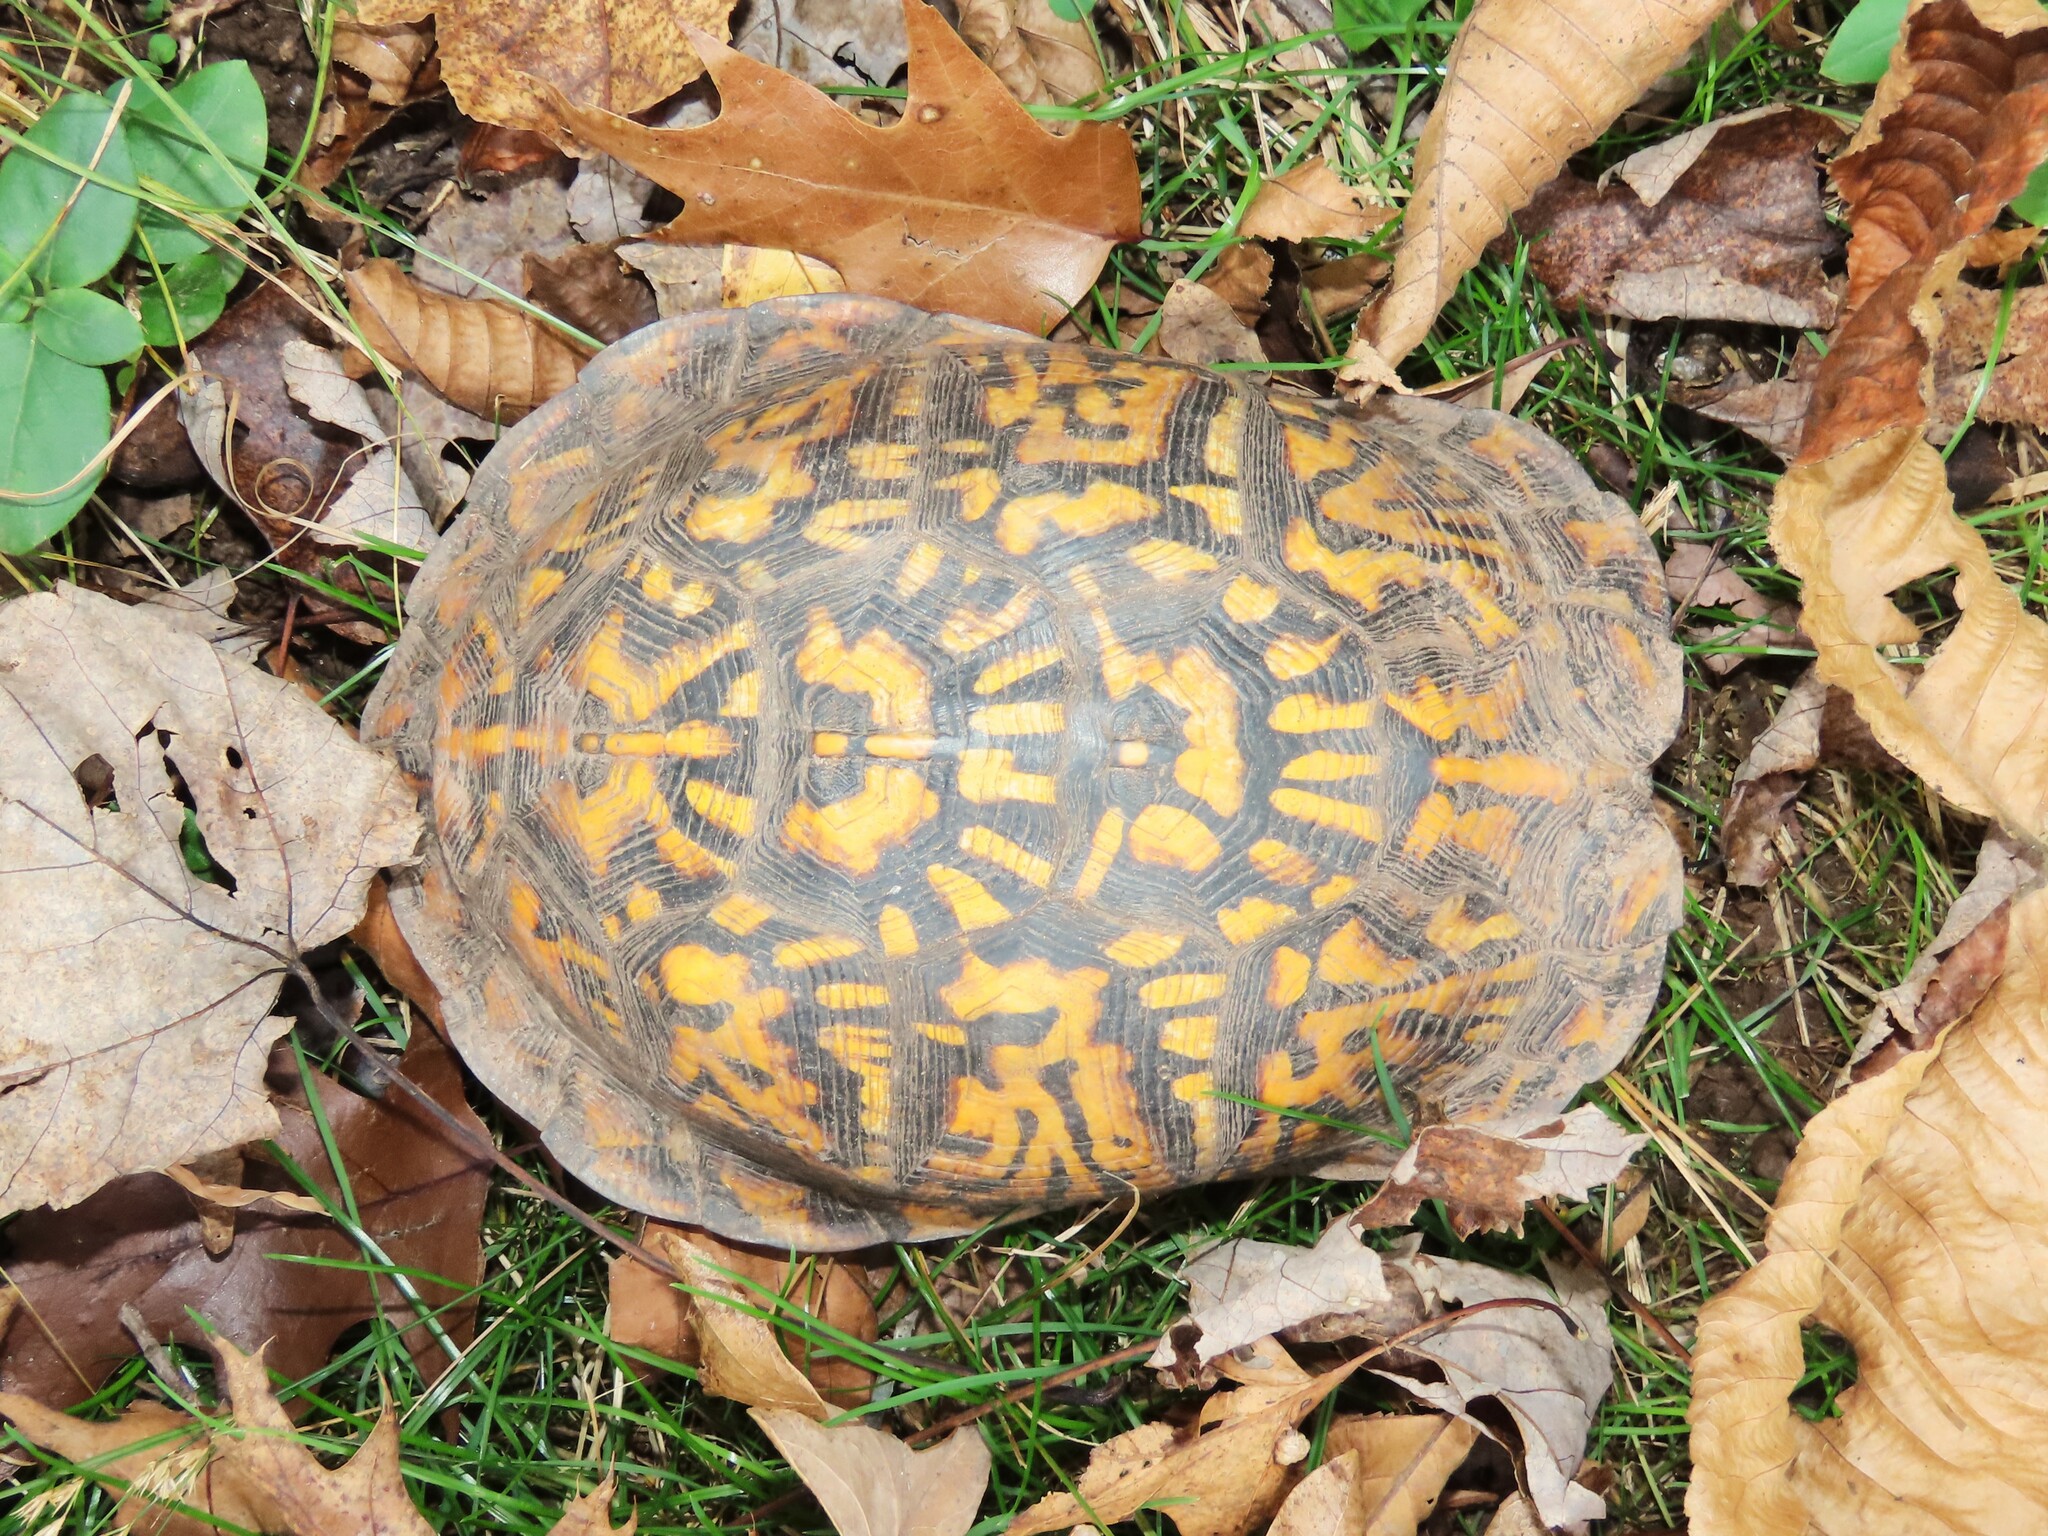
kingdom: Animalia
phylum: Chordata
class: Testudines
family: Emydidae
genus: Terrapene
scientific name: Terrapene carolina
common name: Common box turtle
